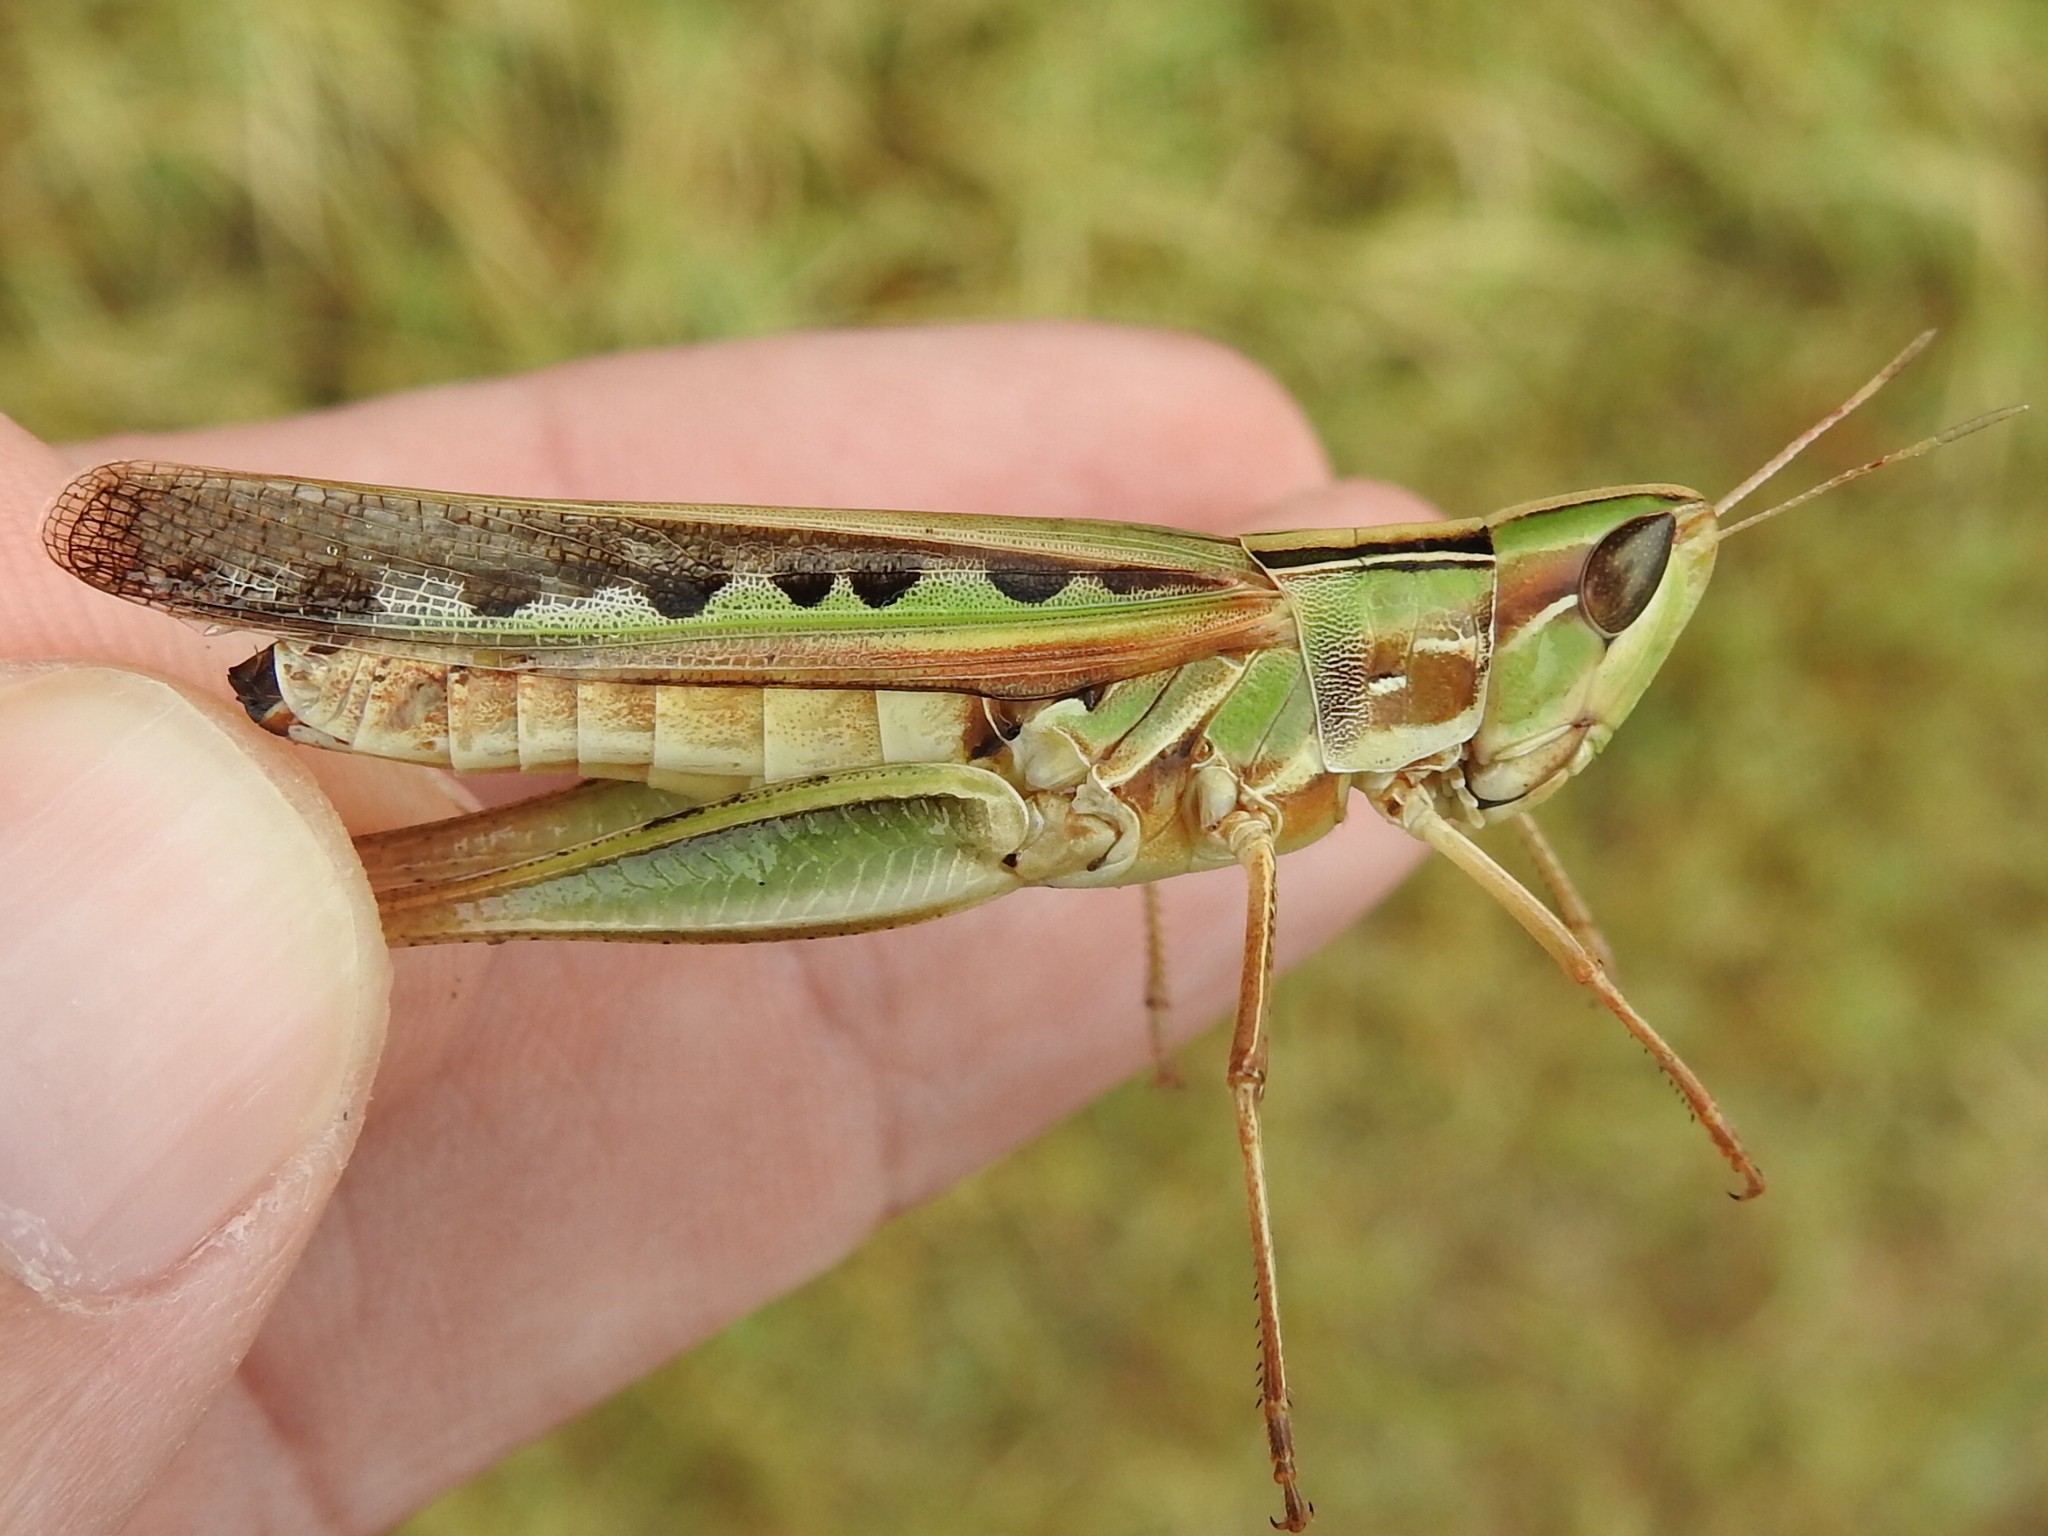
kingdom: Animalia
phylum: Arthropoda
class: Insecta
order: Orthoptera
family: Acrididae
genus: Syrbula
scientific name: Syrbula admirabilis
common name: Handsome grasshopper
